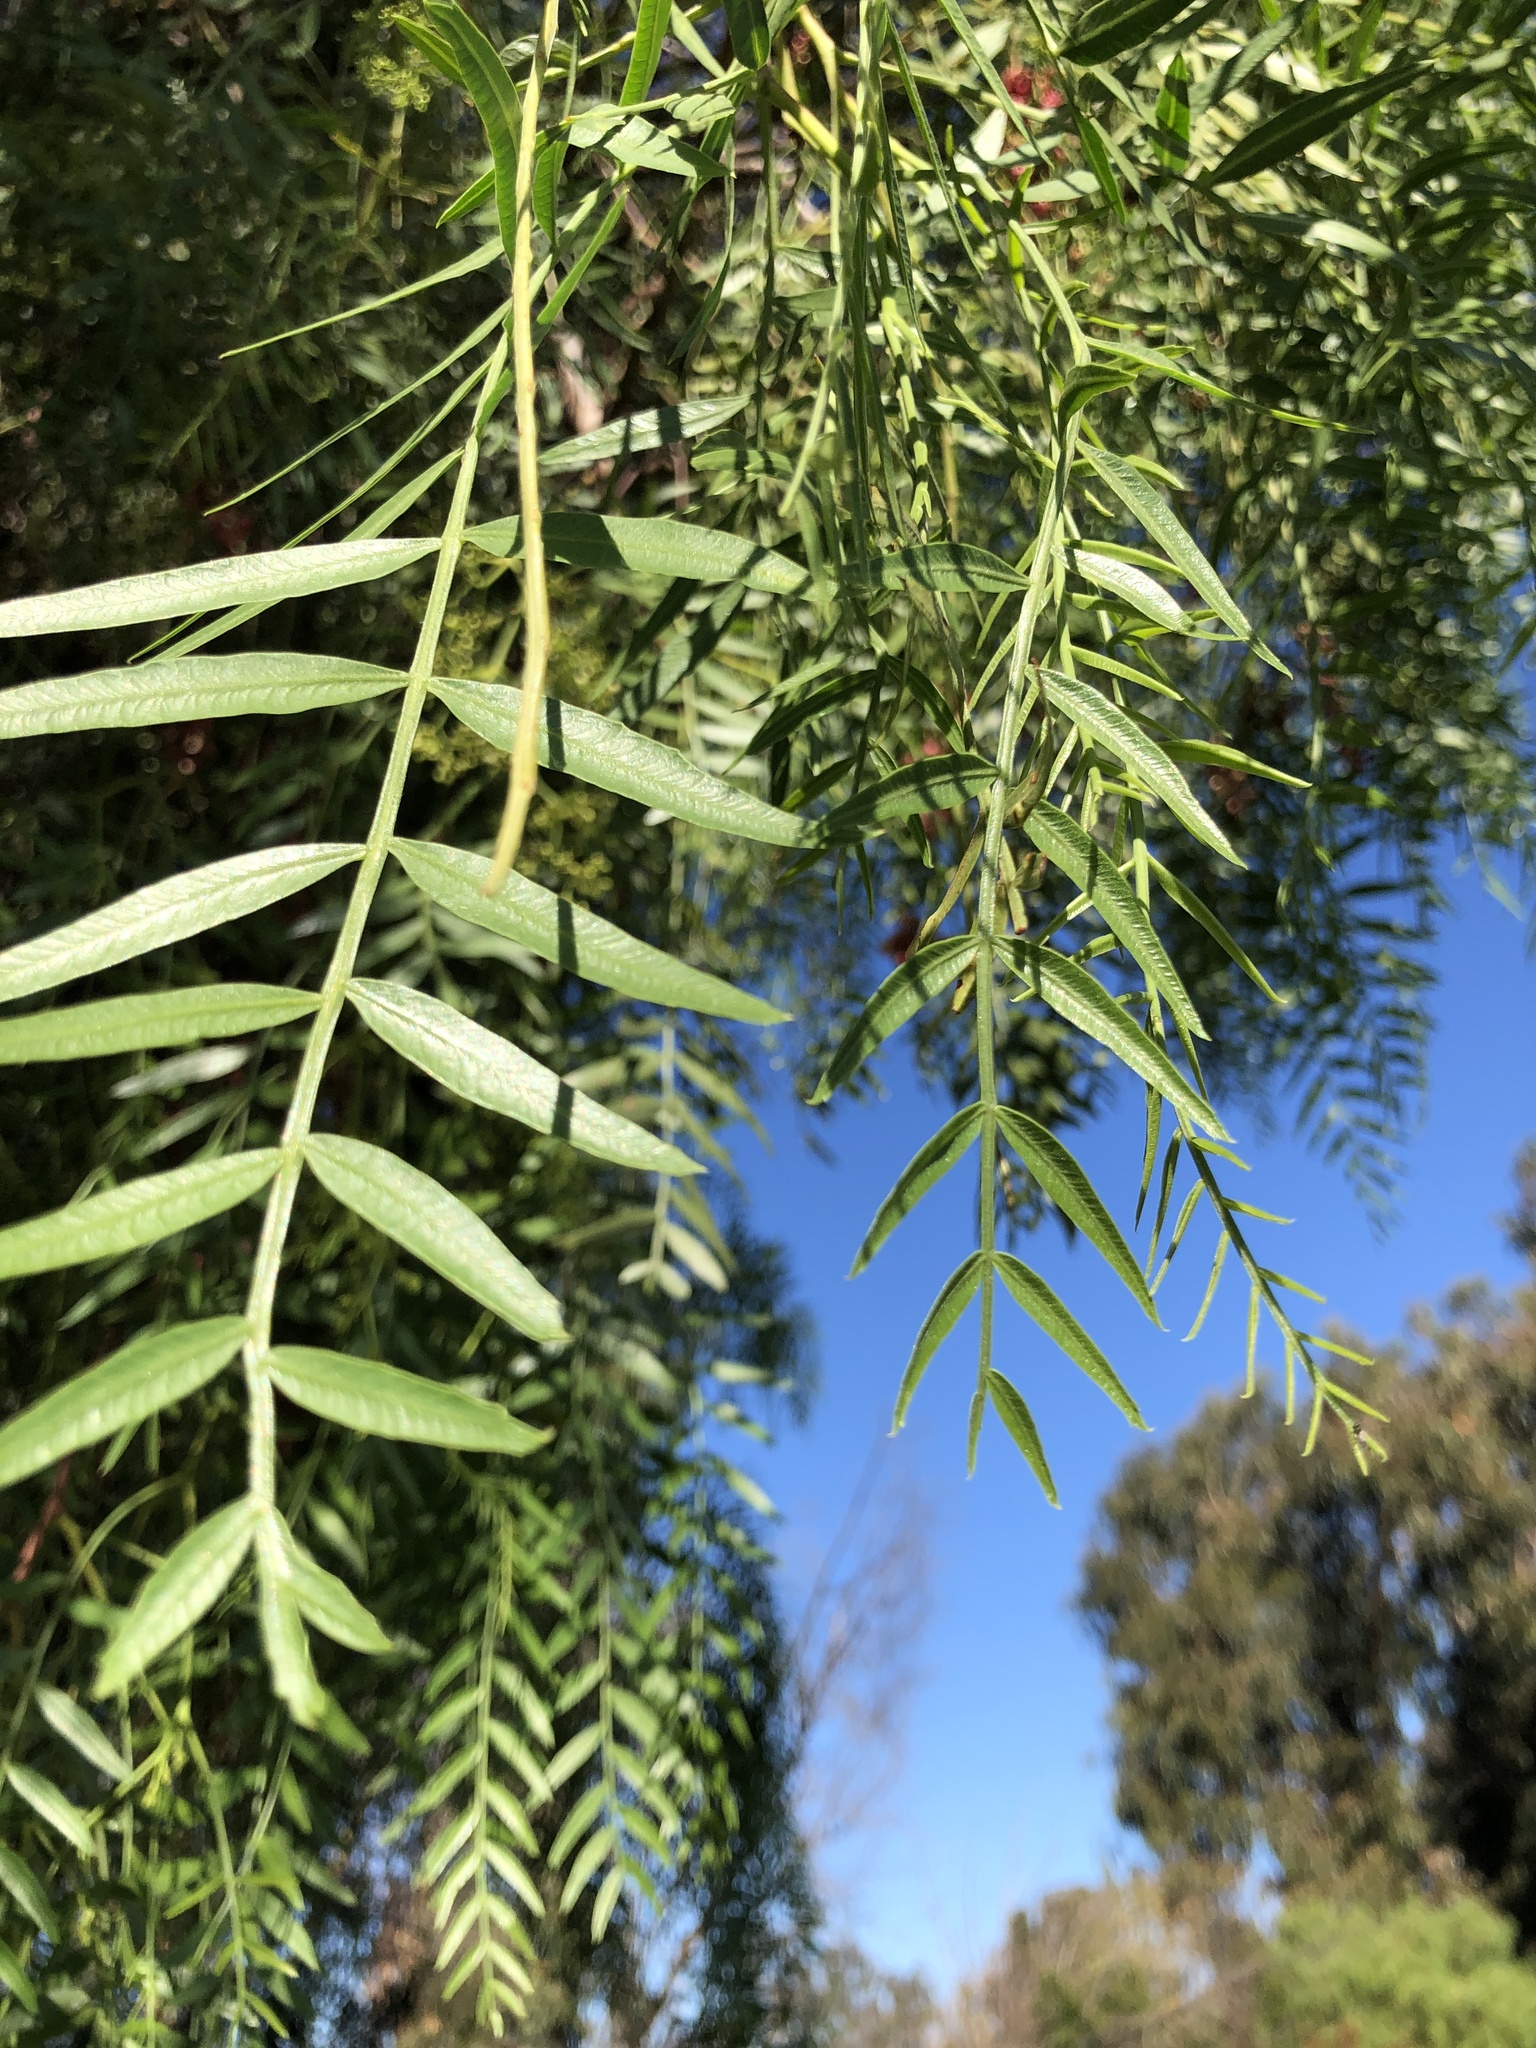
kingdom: Plantae
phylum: Tracheophyta
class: Magnoliopsida
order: Sapindales
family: Anacardiaceae
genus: Schinus
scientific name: Schinus molle
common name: Peruvian peppertree
